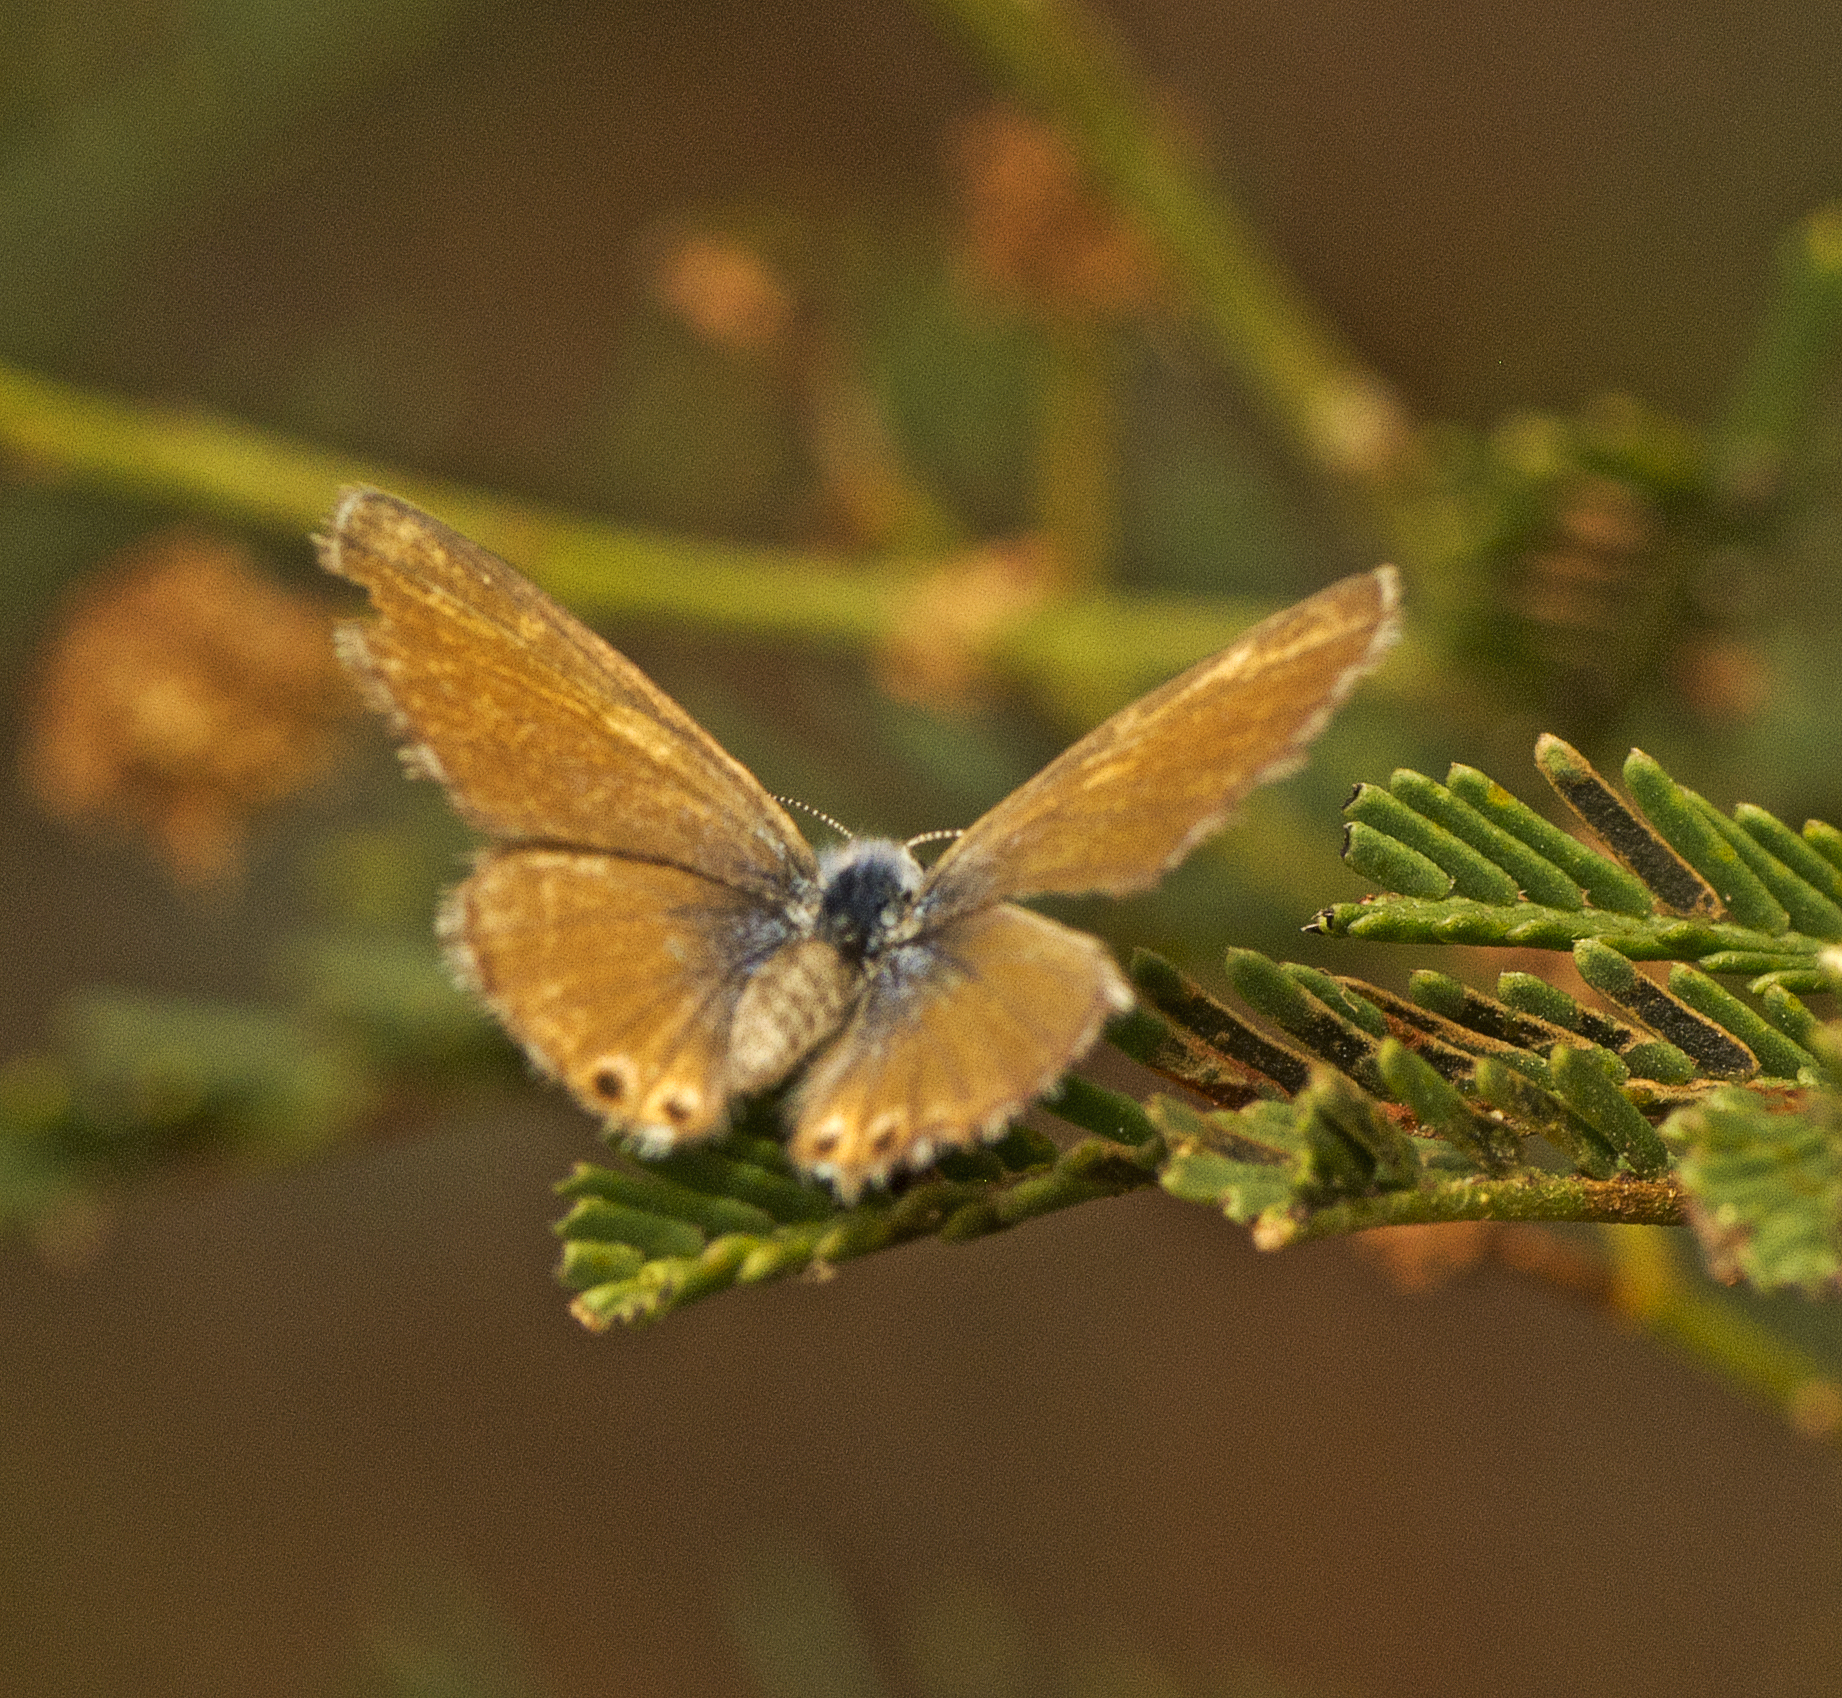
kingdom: Animalia
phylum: Arthropoda
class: Insecta
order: Lepidoptera
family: Lycaenidae
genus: Nacaduba
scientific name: Nacaduba biocellata
